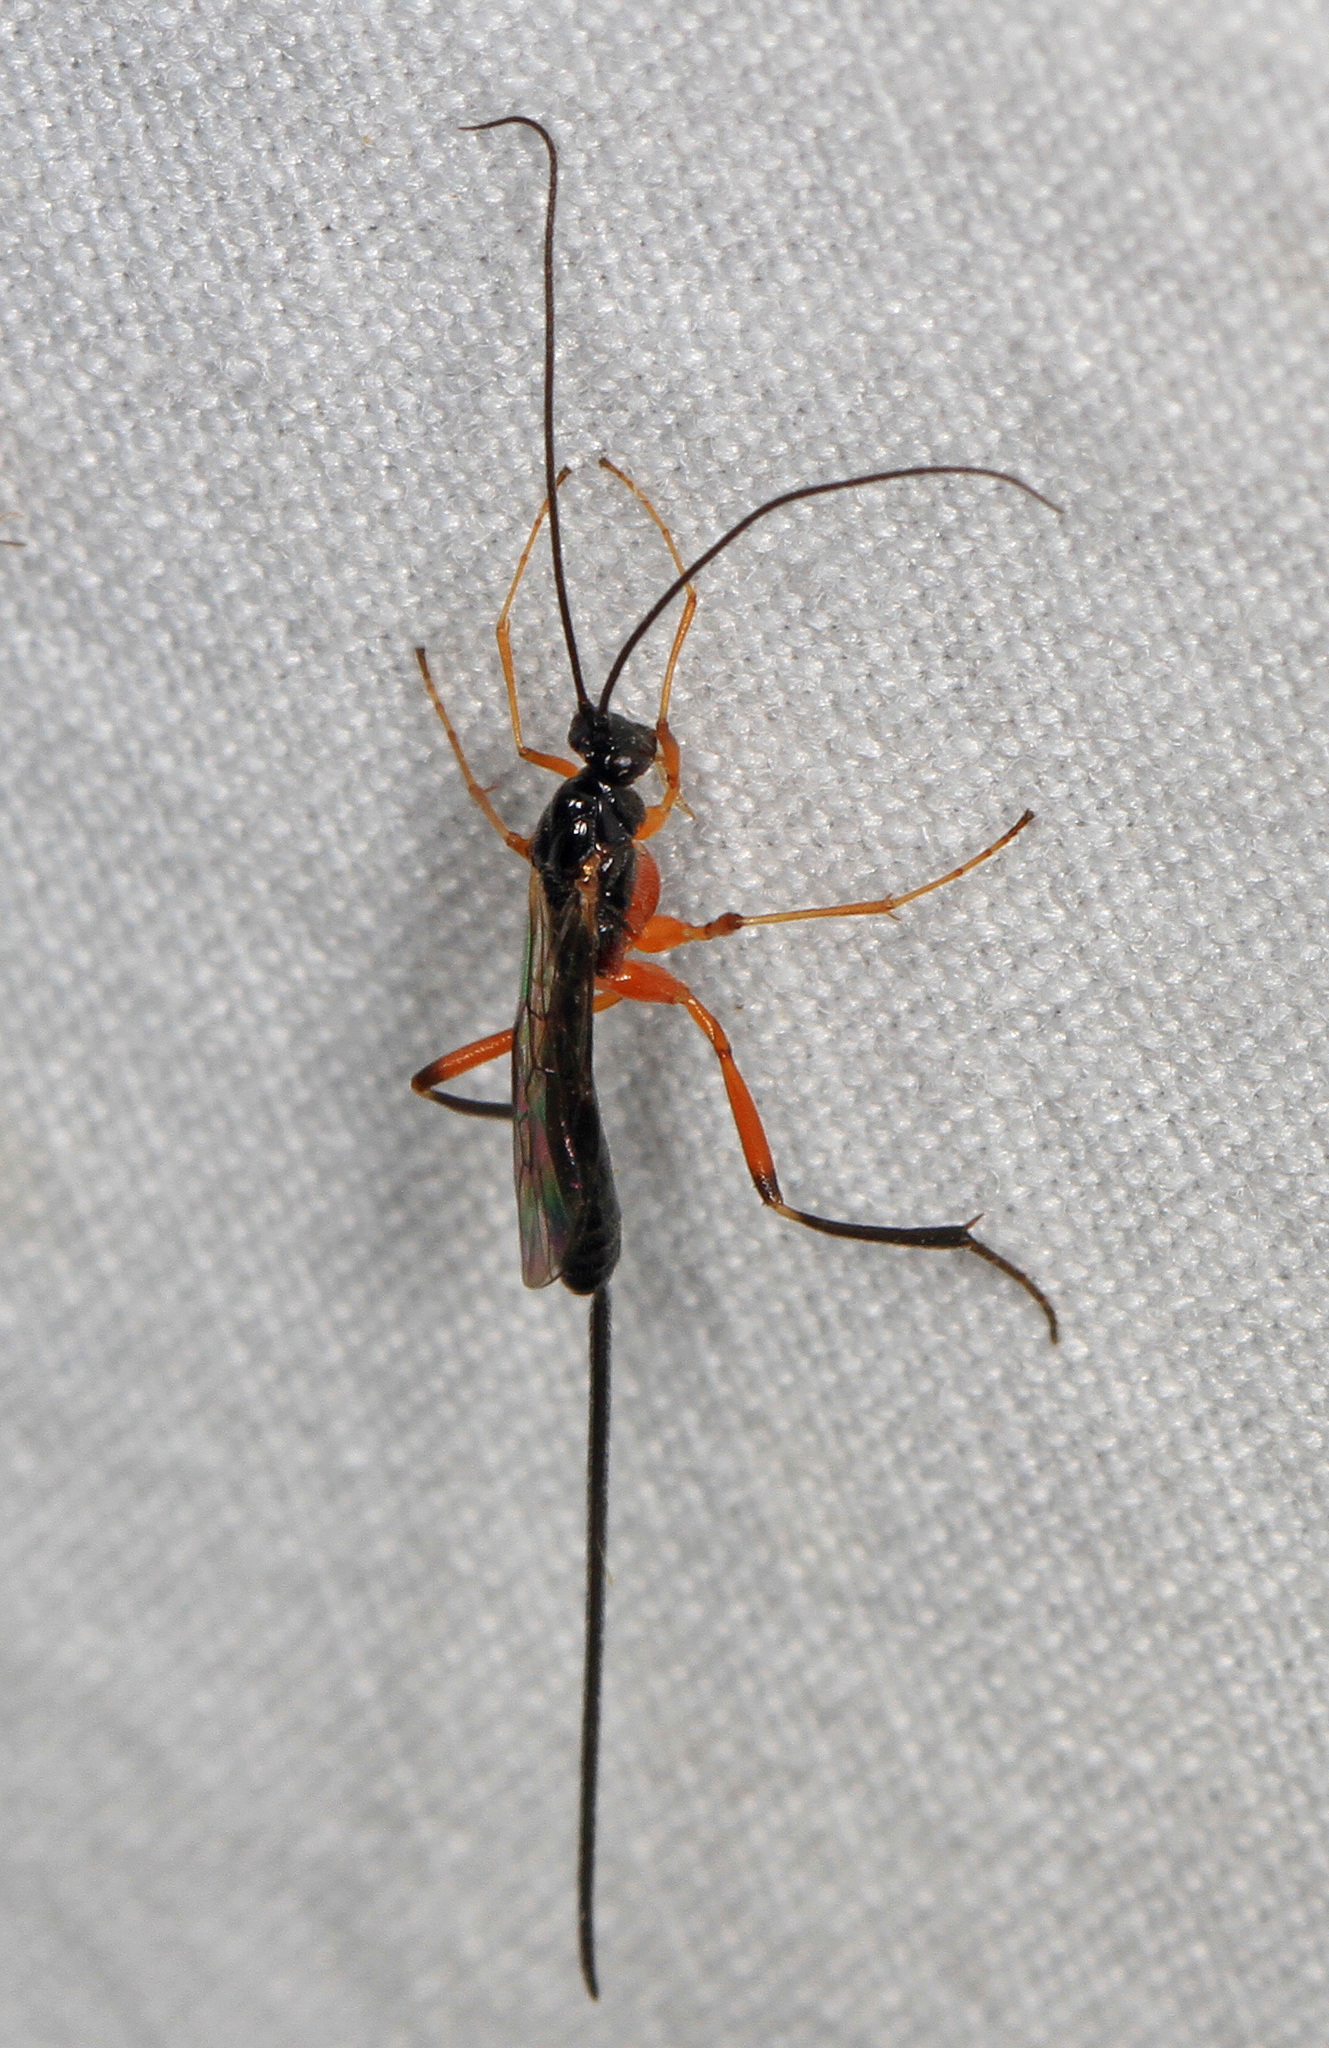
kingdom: Animalia
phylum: Arthropoda
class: Insecta
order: Hymenoptera
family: Braconidae
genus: Macrocentrus
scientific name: Macrocentrus aegeriae
